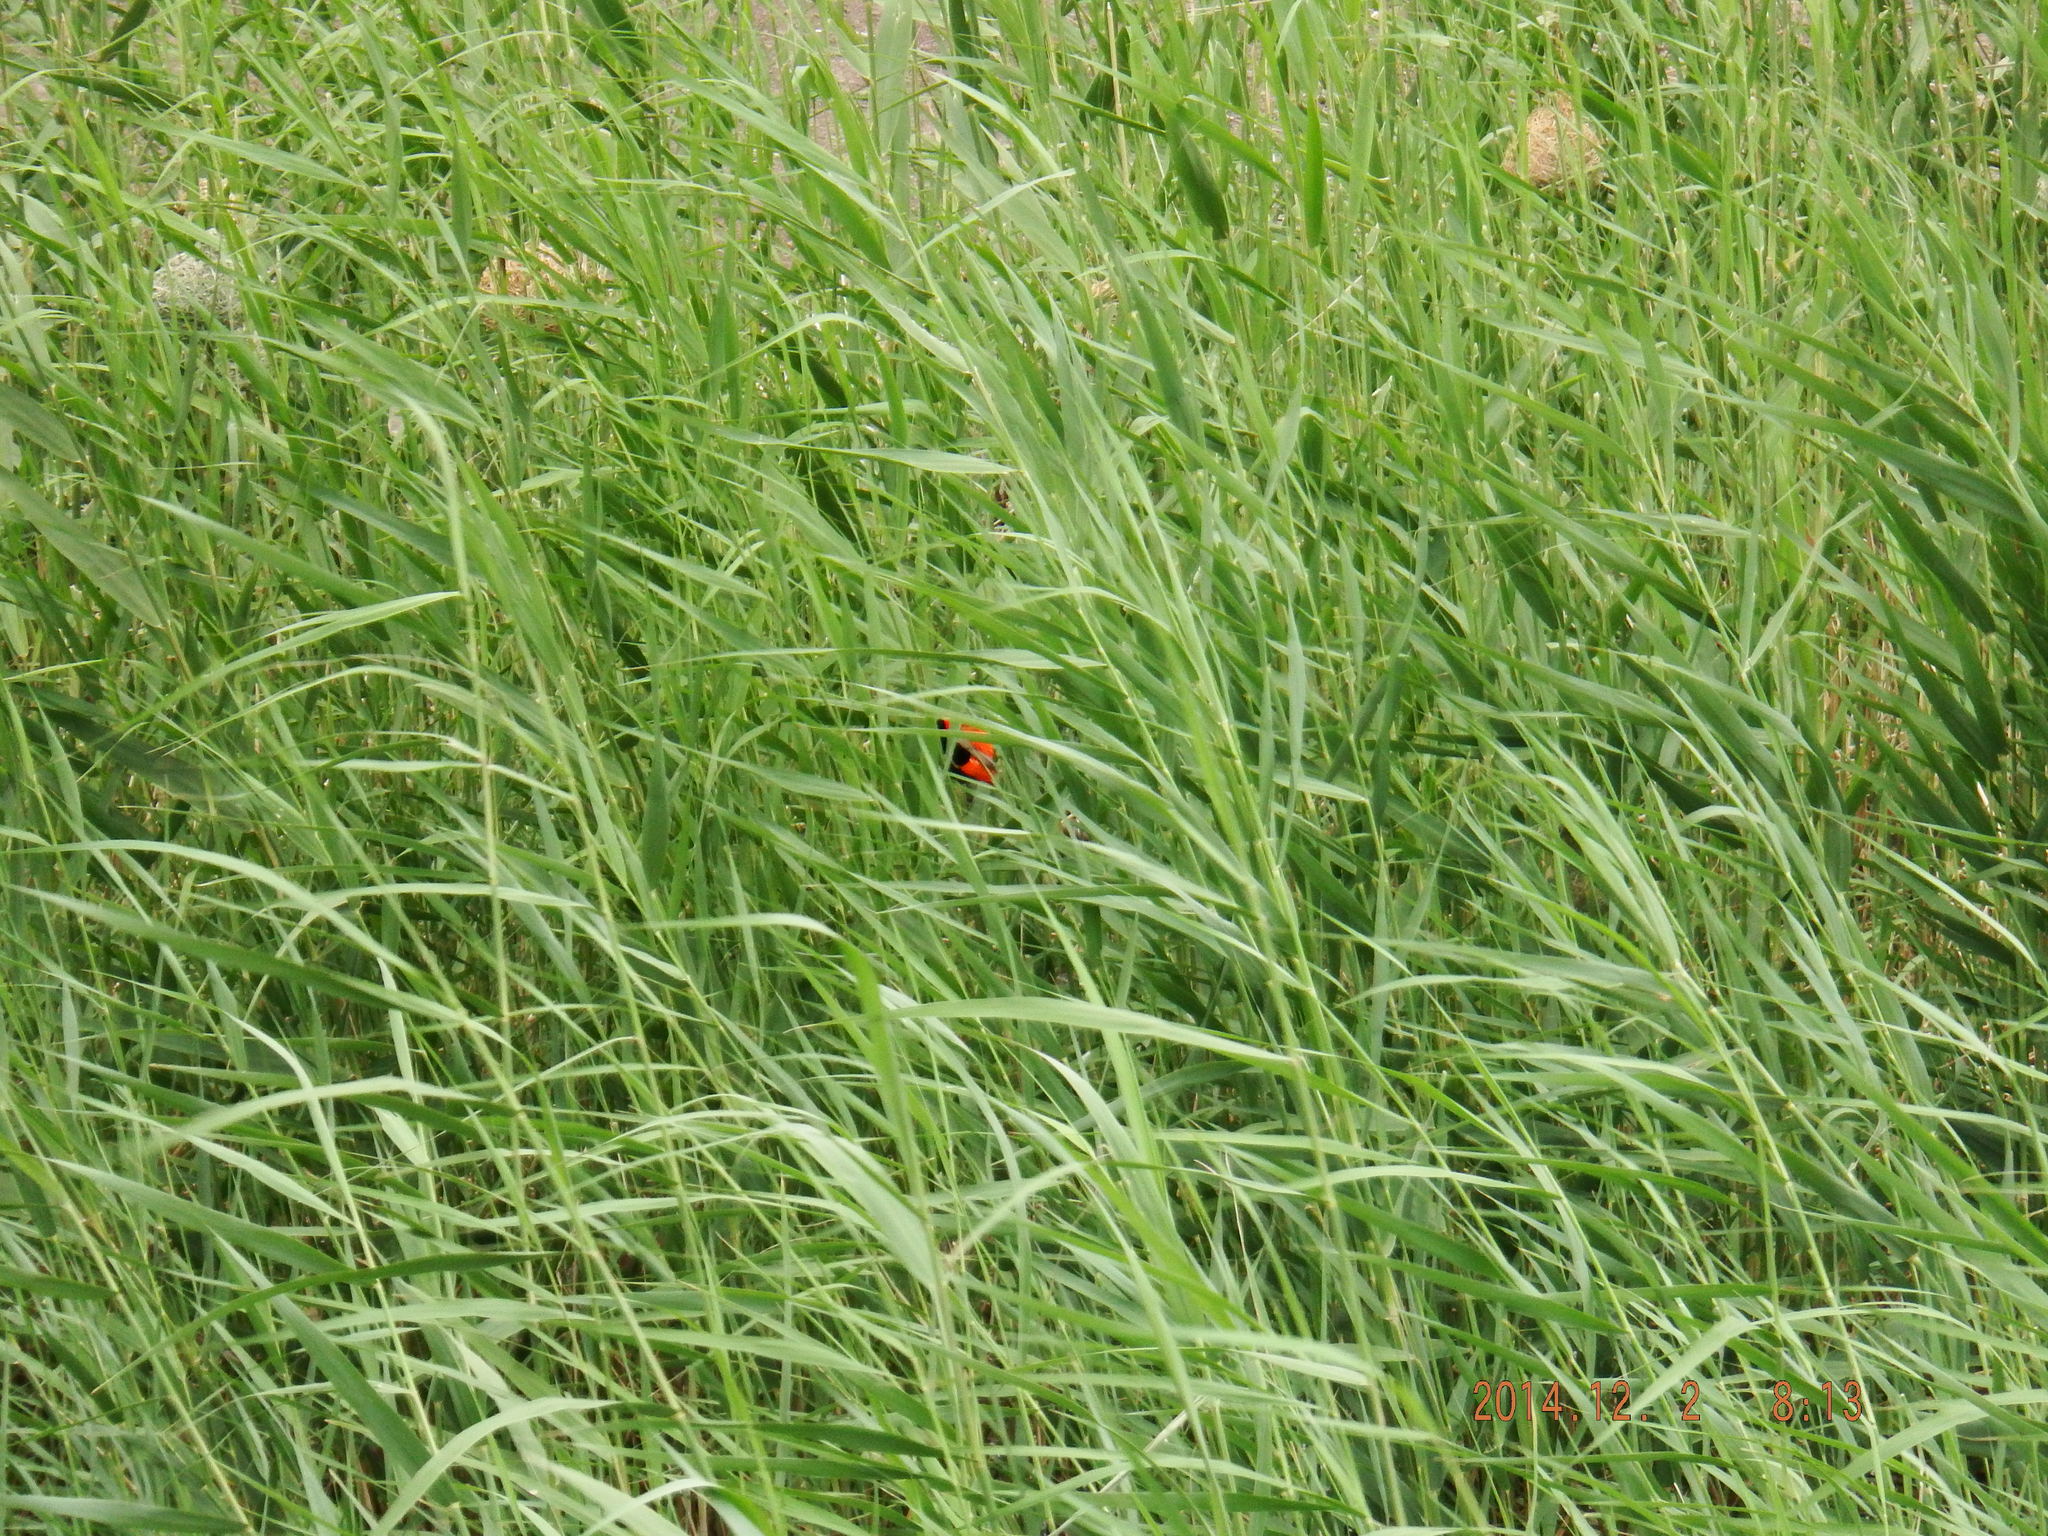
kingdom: Animalia
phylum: Chordata
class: Aves
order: Passeriformes
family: Ploceidae
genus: Euplectes
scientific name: Euplectes orix
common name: Southern red bishop
